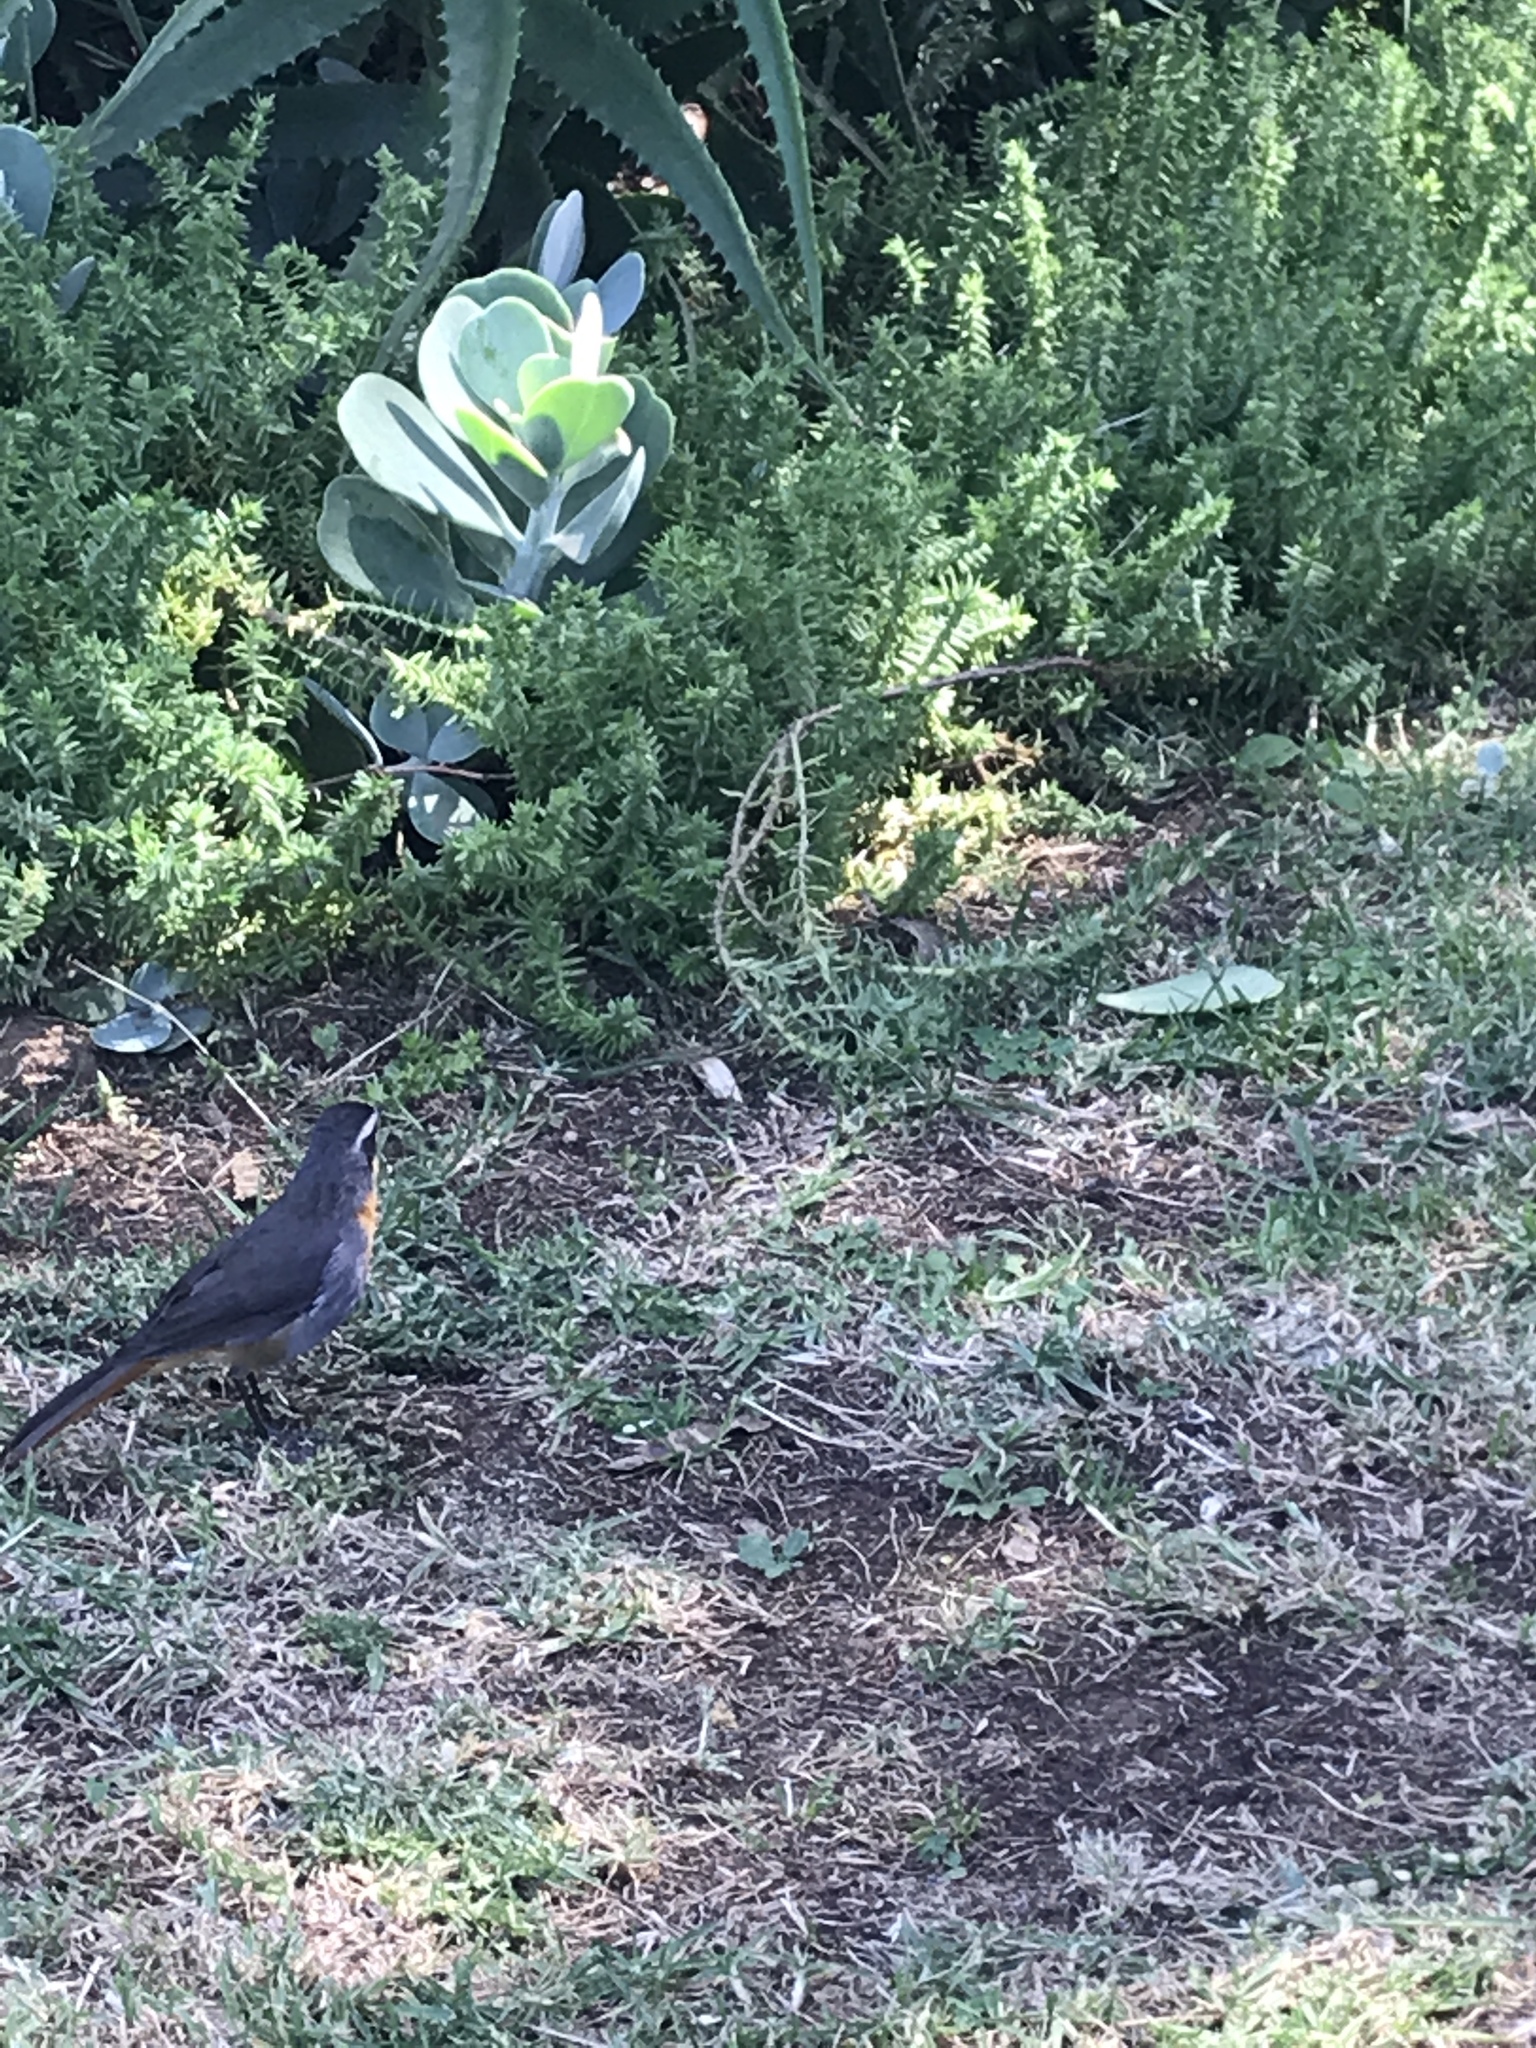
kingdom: Animalia
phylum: Chordata
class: Aves
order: Passeriformes
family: Muscicapidae
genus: Cossypha
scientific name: Cossypha caffra
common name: Cape robin-chat
